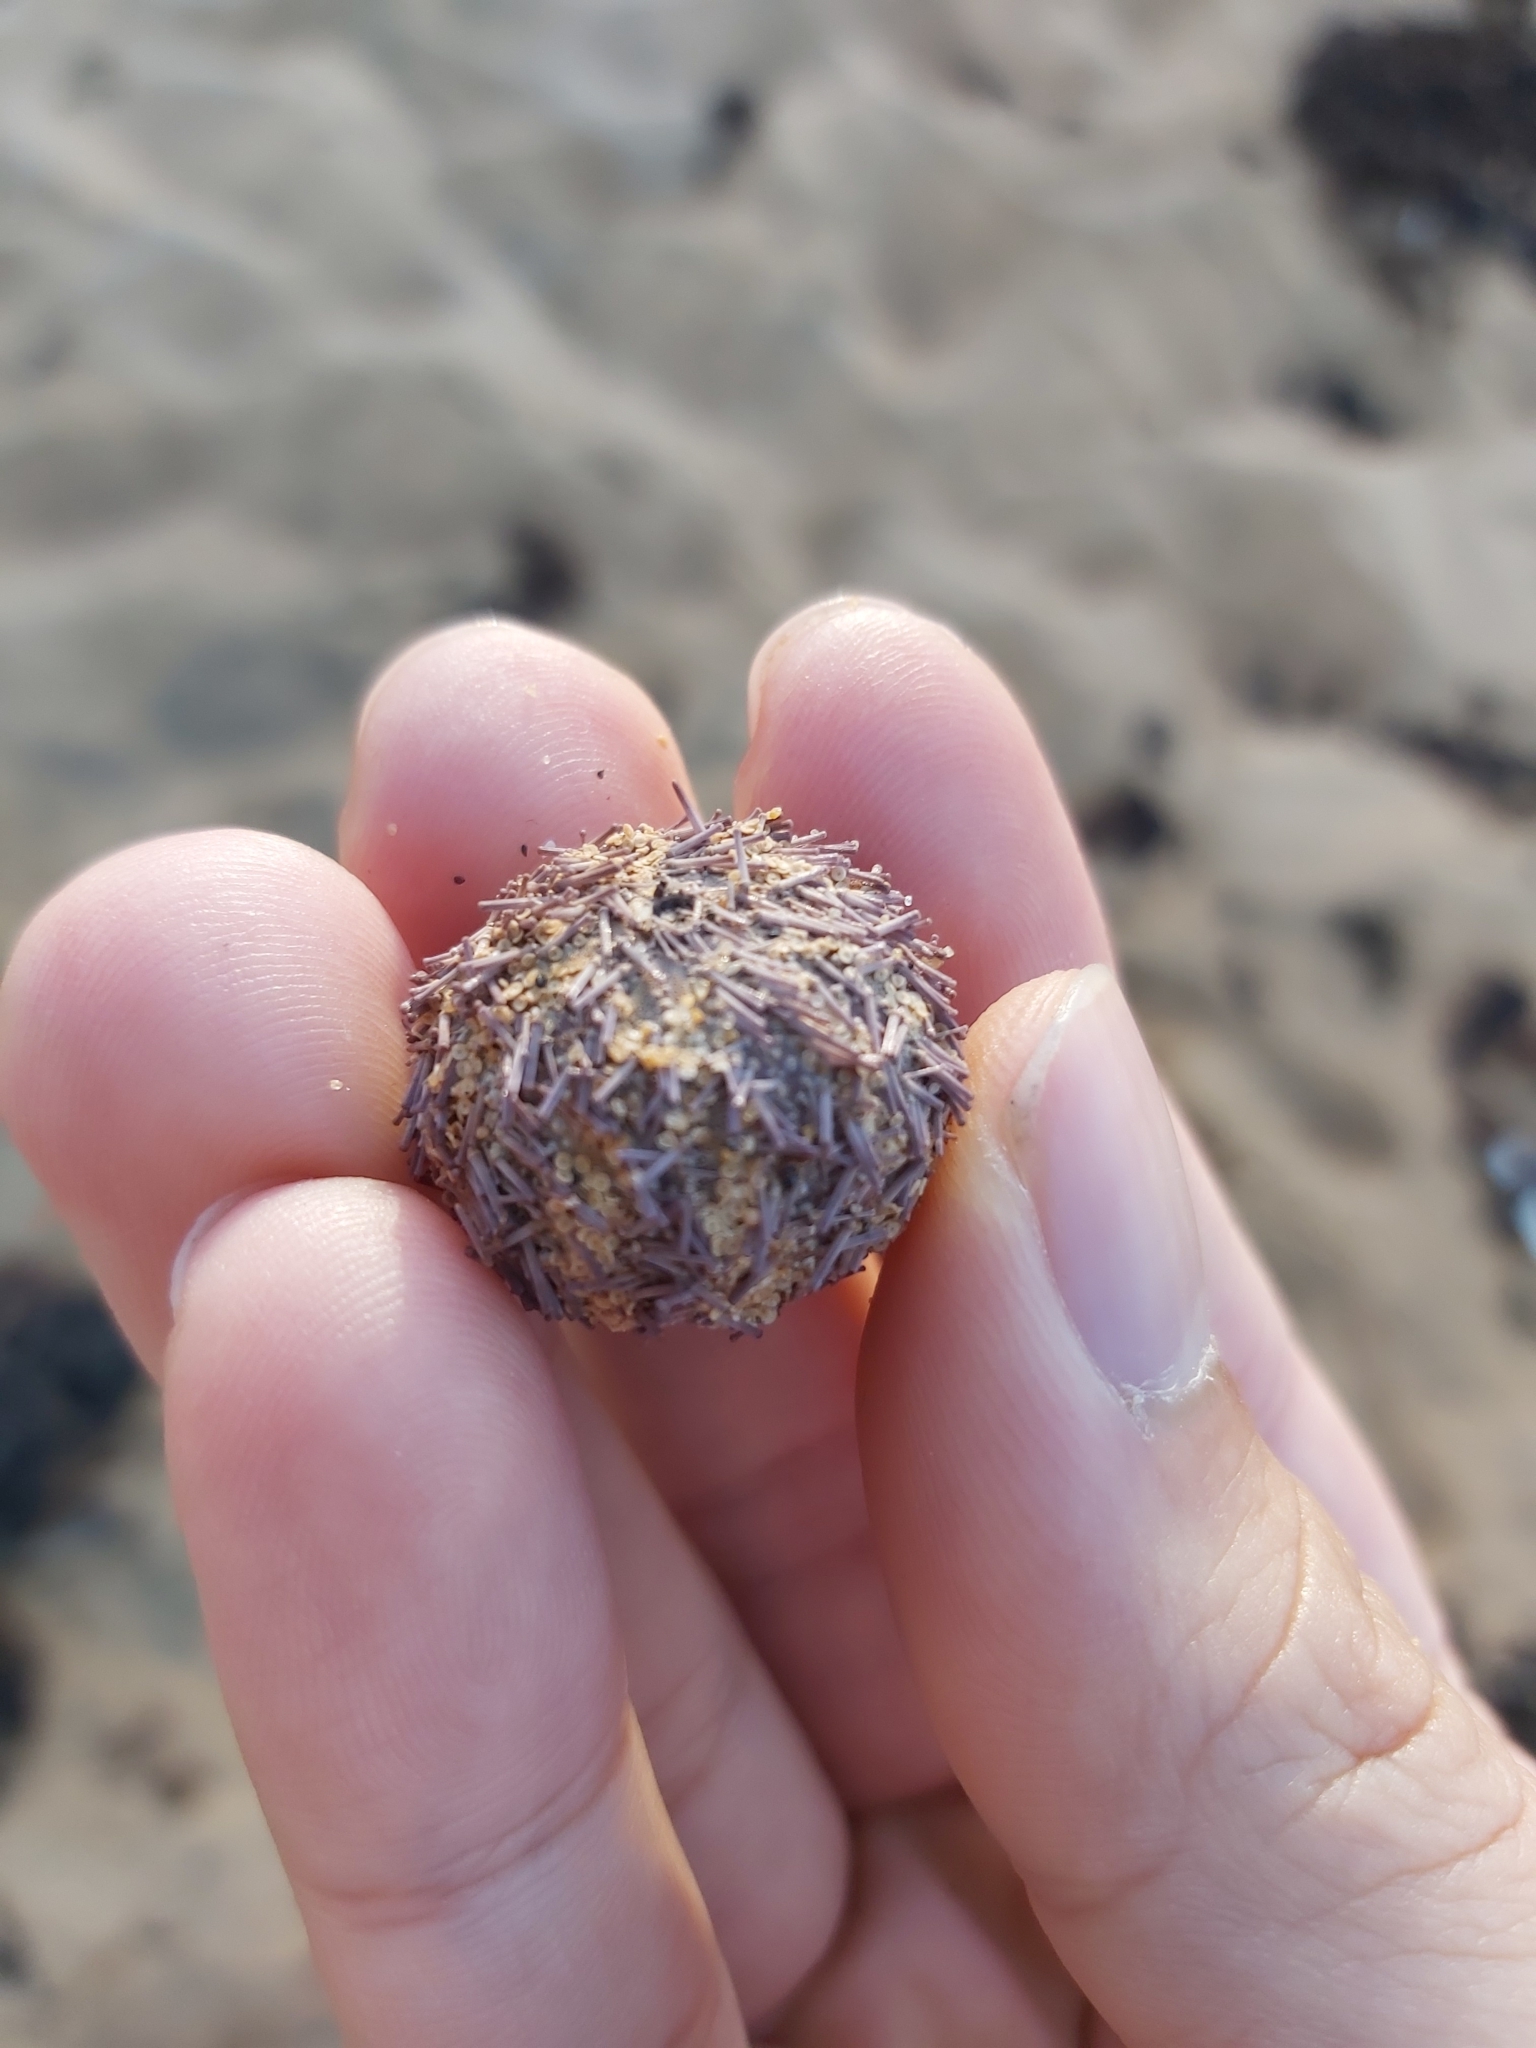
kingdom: Animalia
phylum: Echinodermata
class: Echinoidea
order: Camarodonta
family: Temnopleuridae
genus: Holopneustes
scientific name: Holopneustes purpurascens
